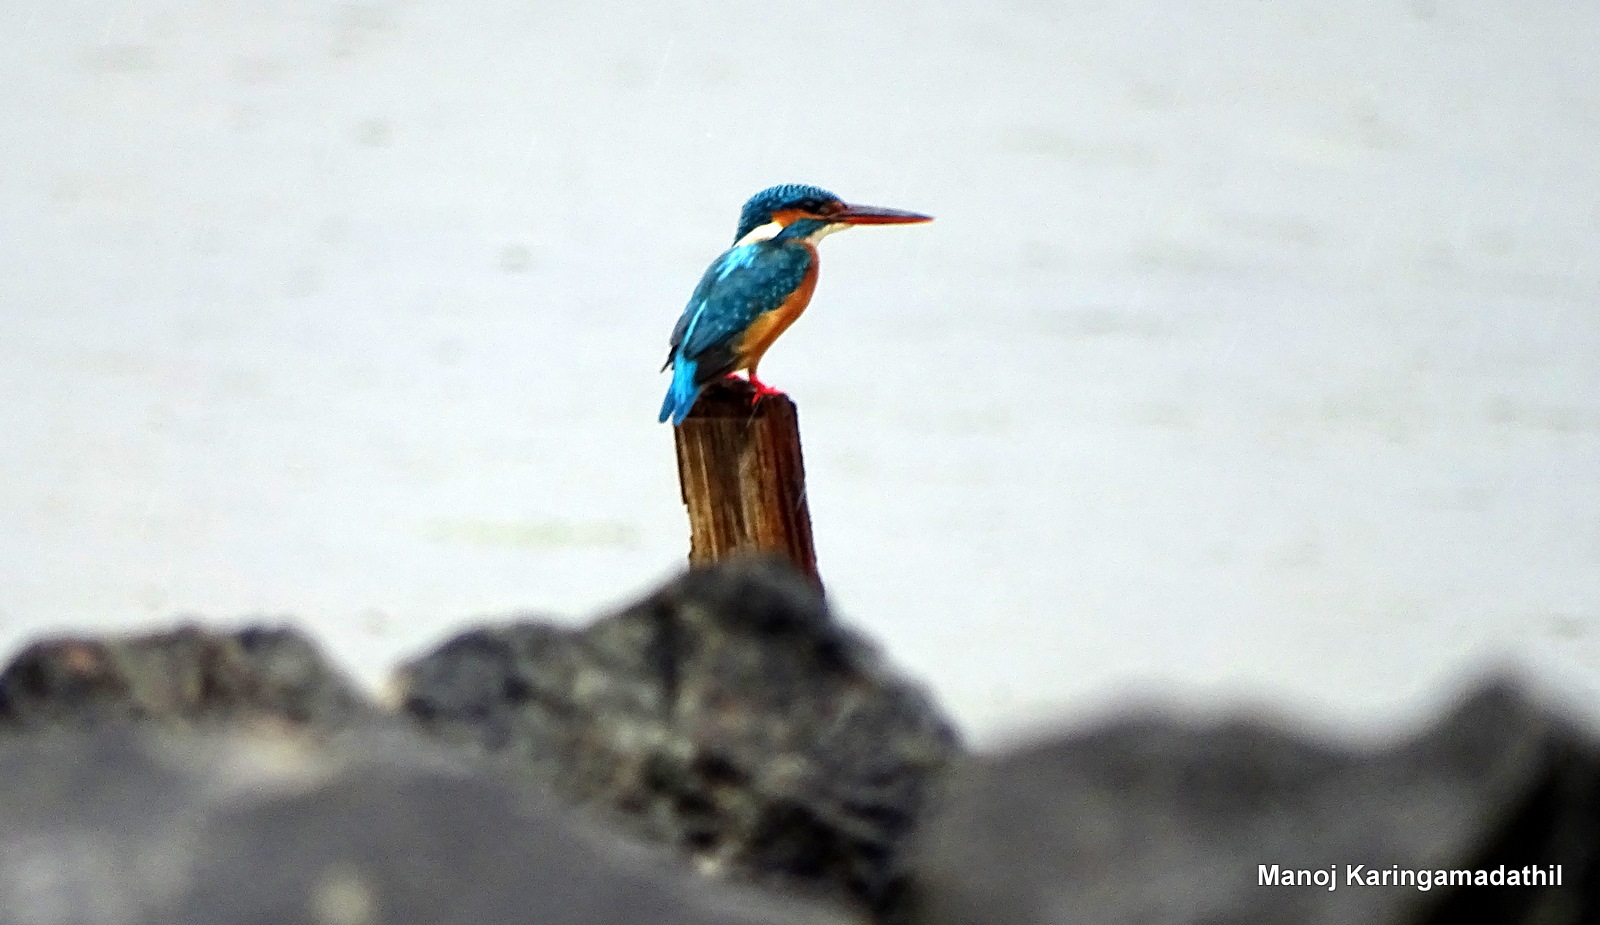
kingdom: Animalia
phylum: Chordata
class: Aves
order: Coraciiformes
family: Alcedinidae
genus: Alcedo
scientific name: Alcedo atthis
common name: Common kingfisher
